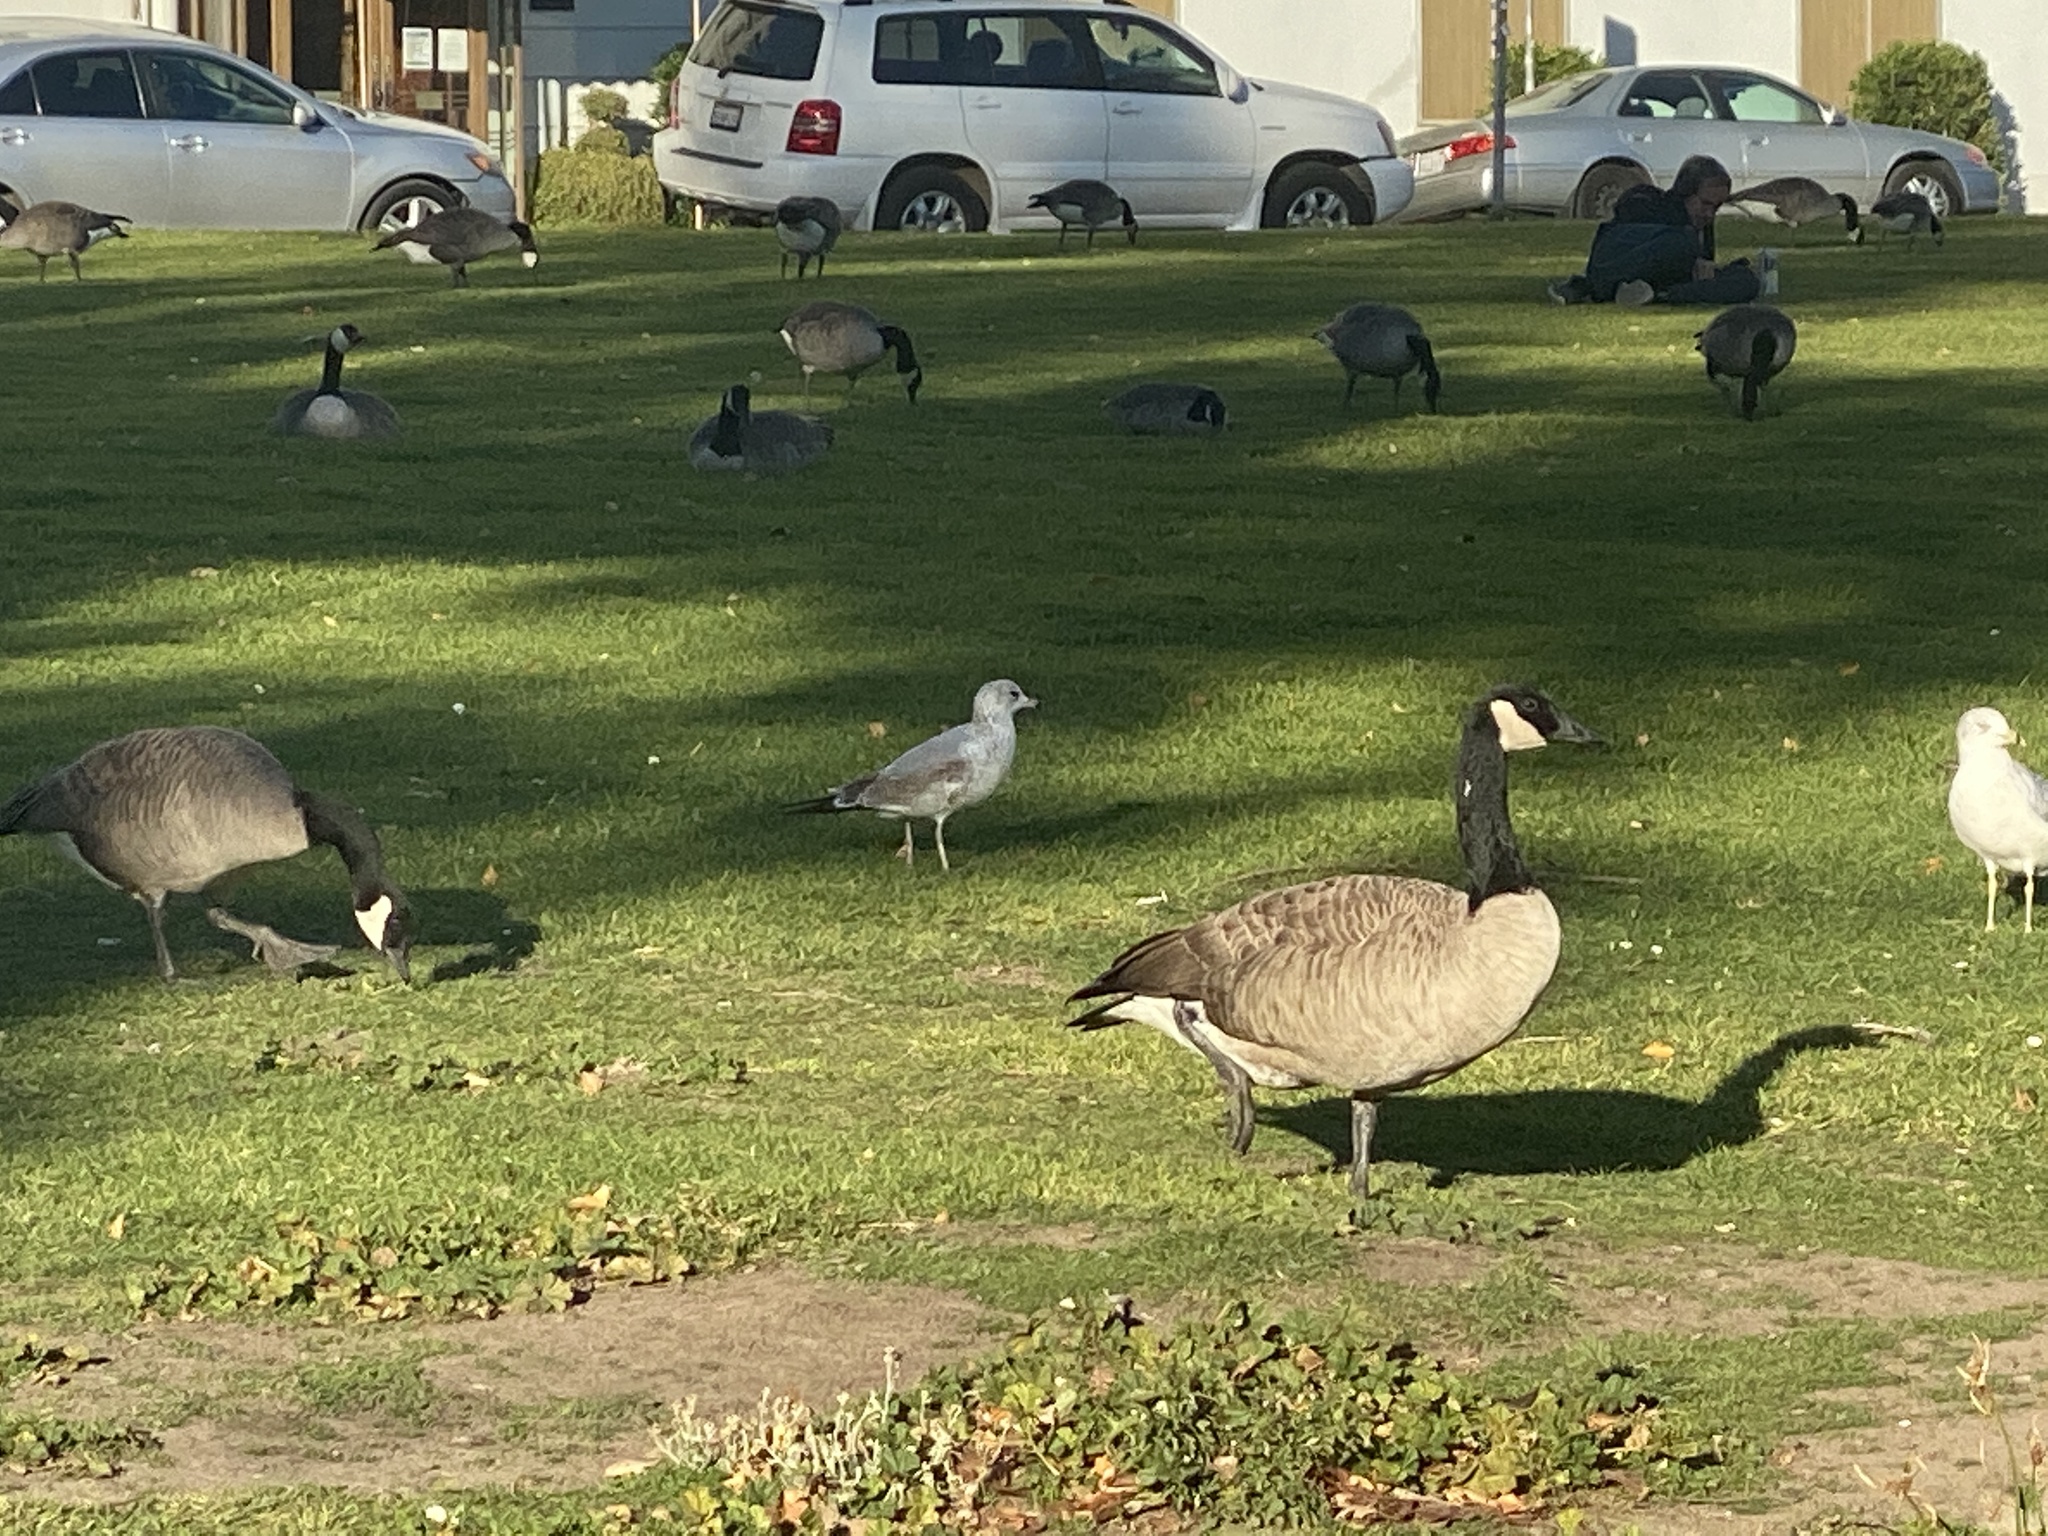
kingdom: Animalia
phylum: Chordata
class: Aves
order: Anseriformes
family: Anatidae
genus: Branta
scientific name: Branta canadensis
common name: Canada goose
